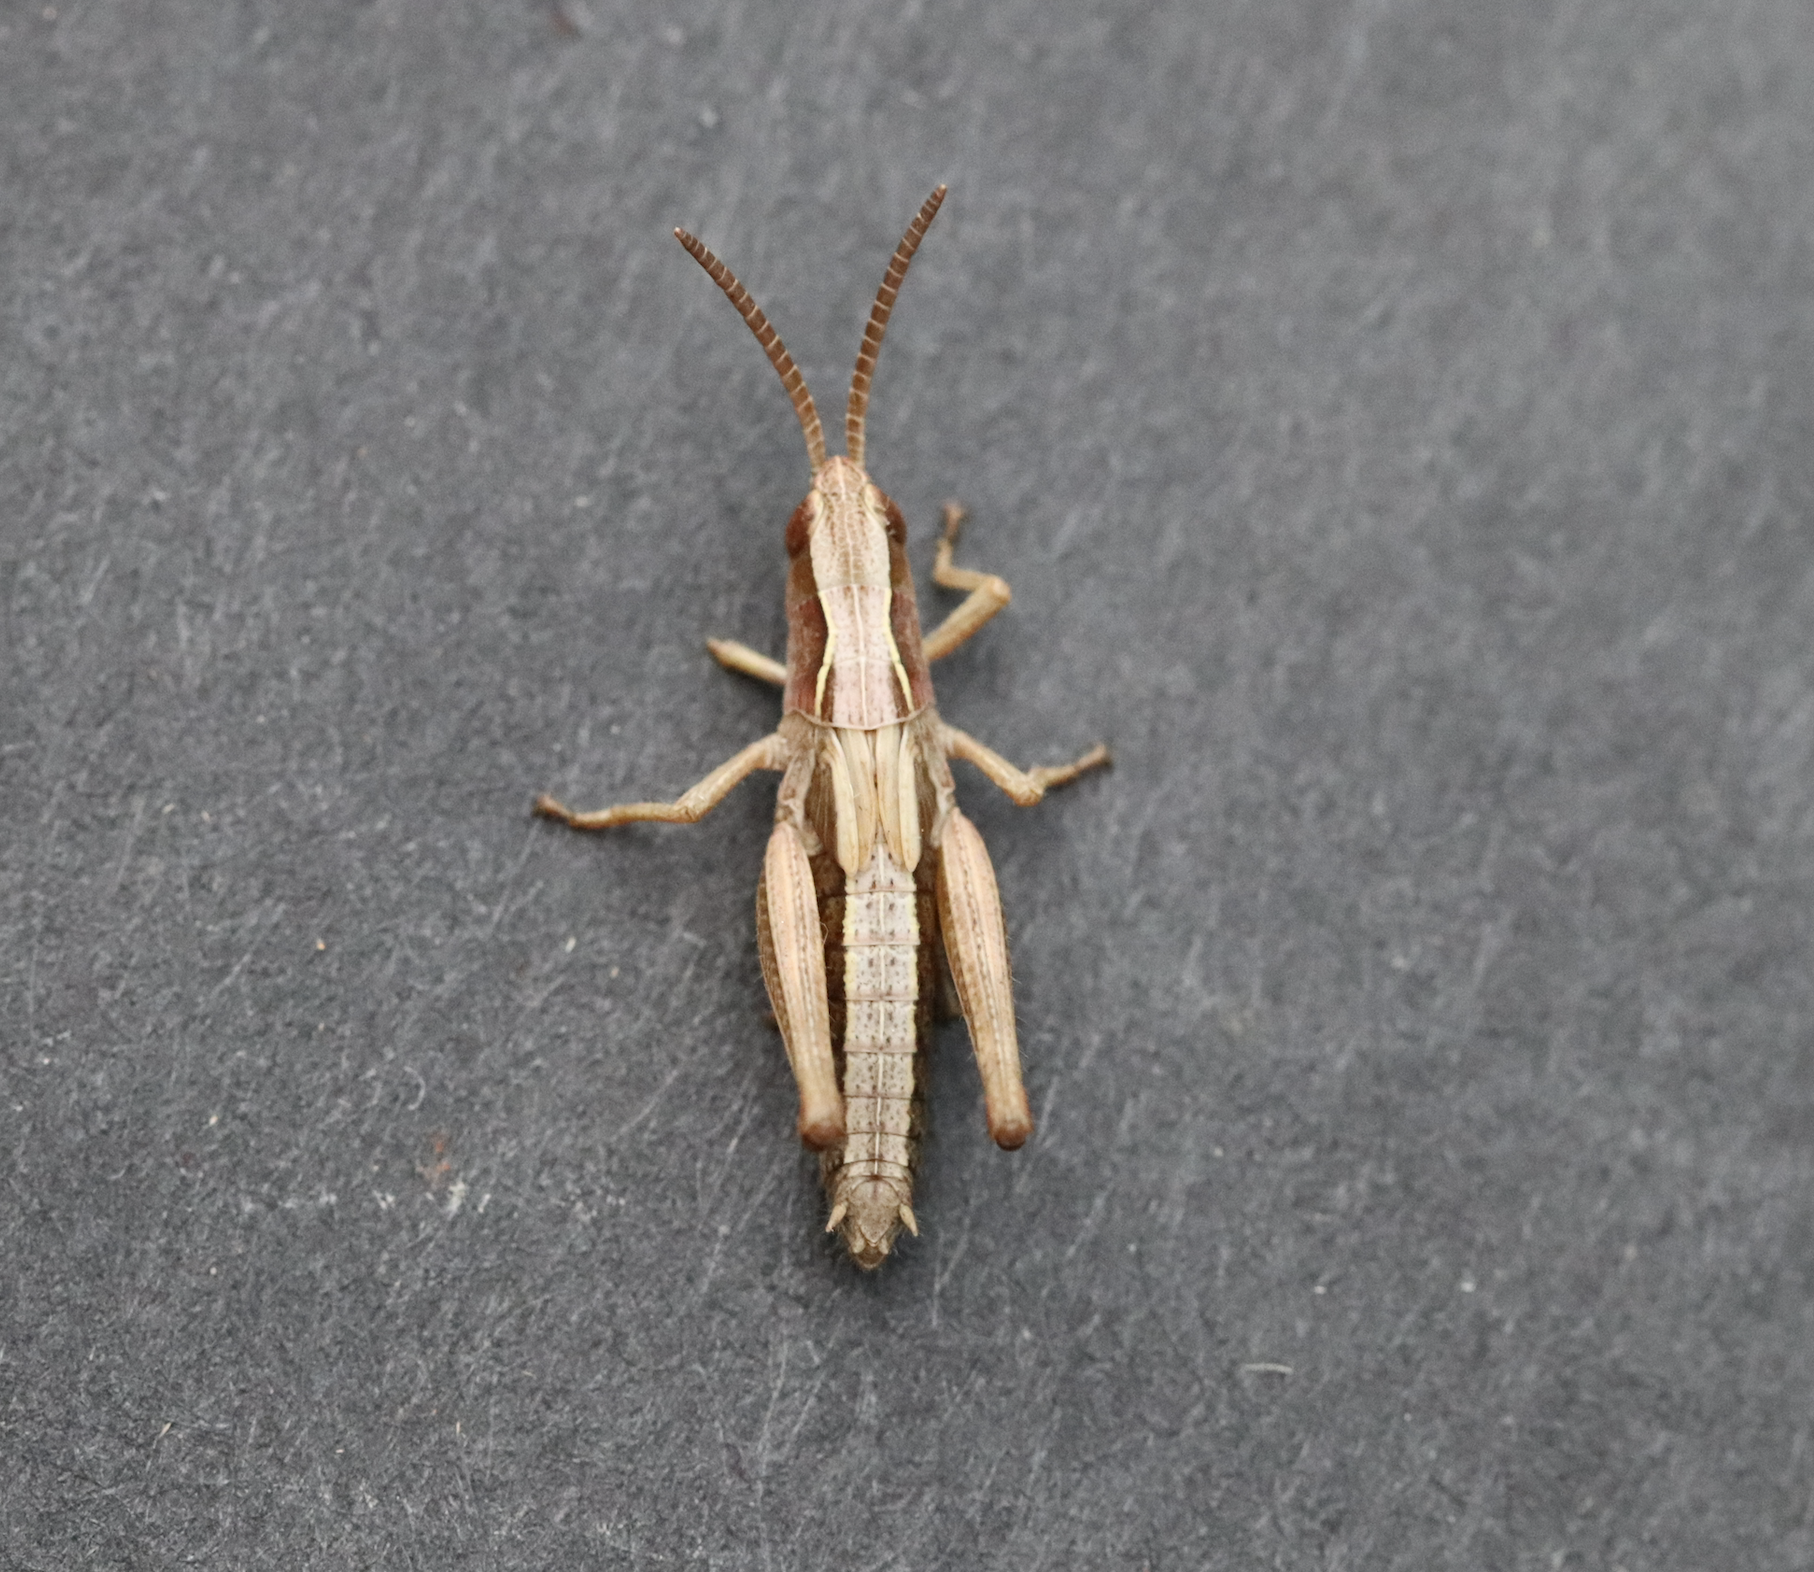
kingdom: Animalia
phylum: Arthropoda
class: Insecta
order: Orthoptera
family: Acrididae
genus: Pseudochorthippus
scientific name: Pseudochorthippus curtipennis
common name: Marsh meadow grasshopper
